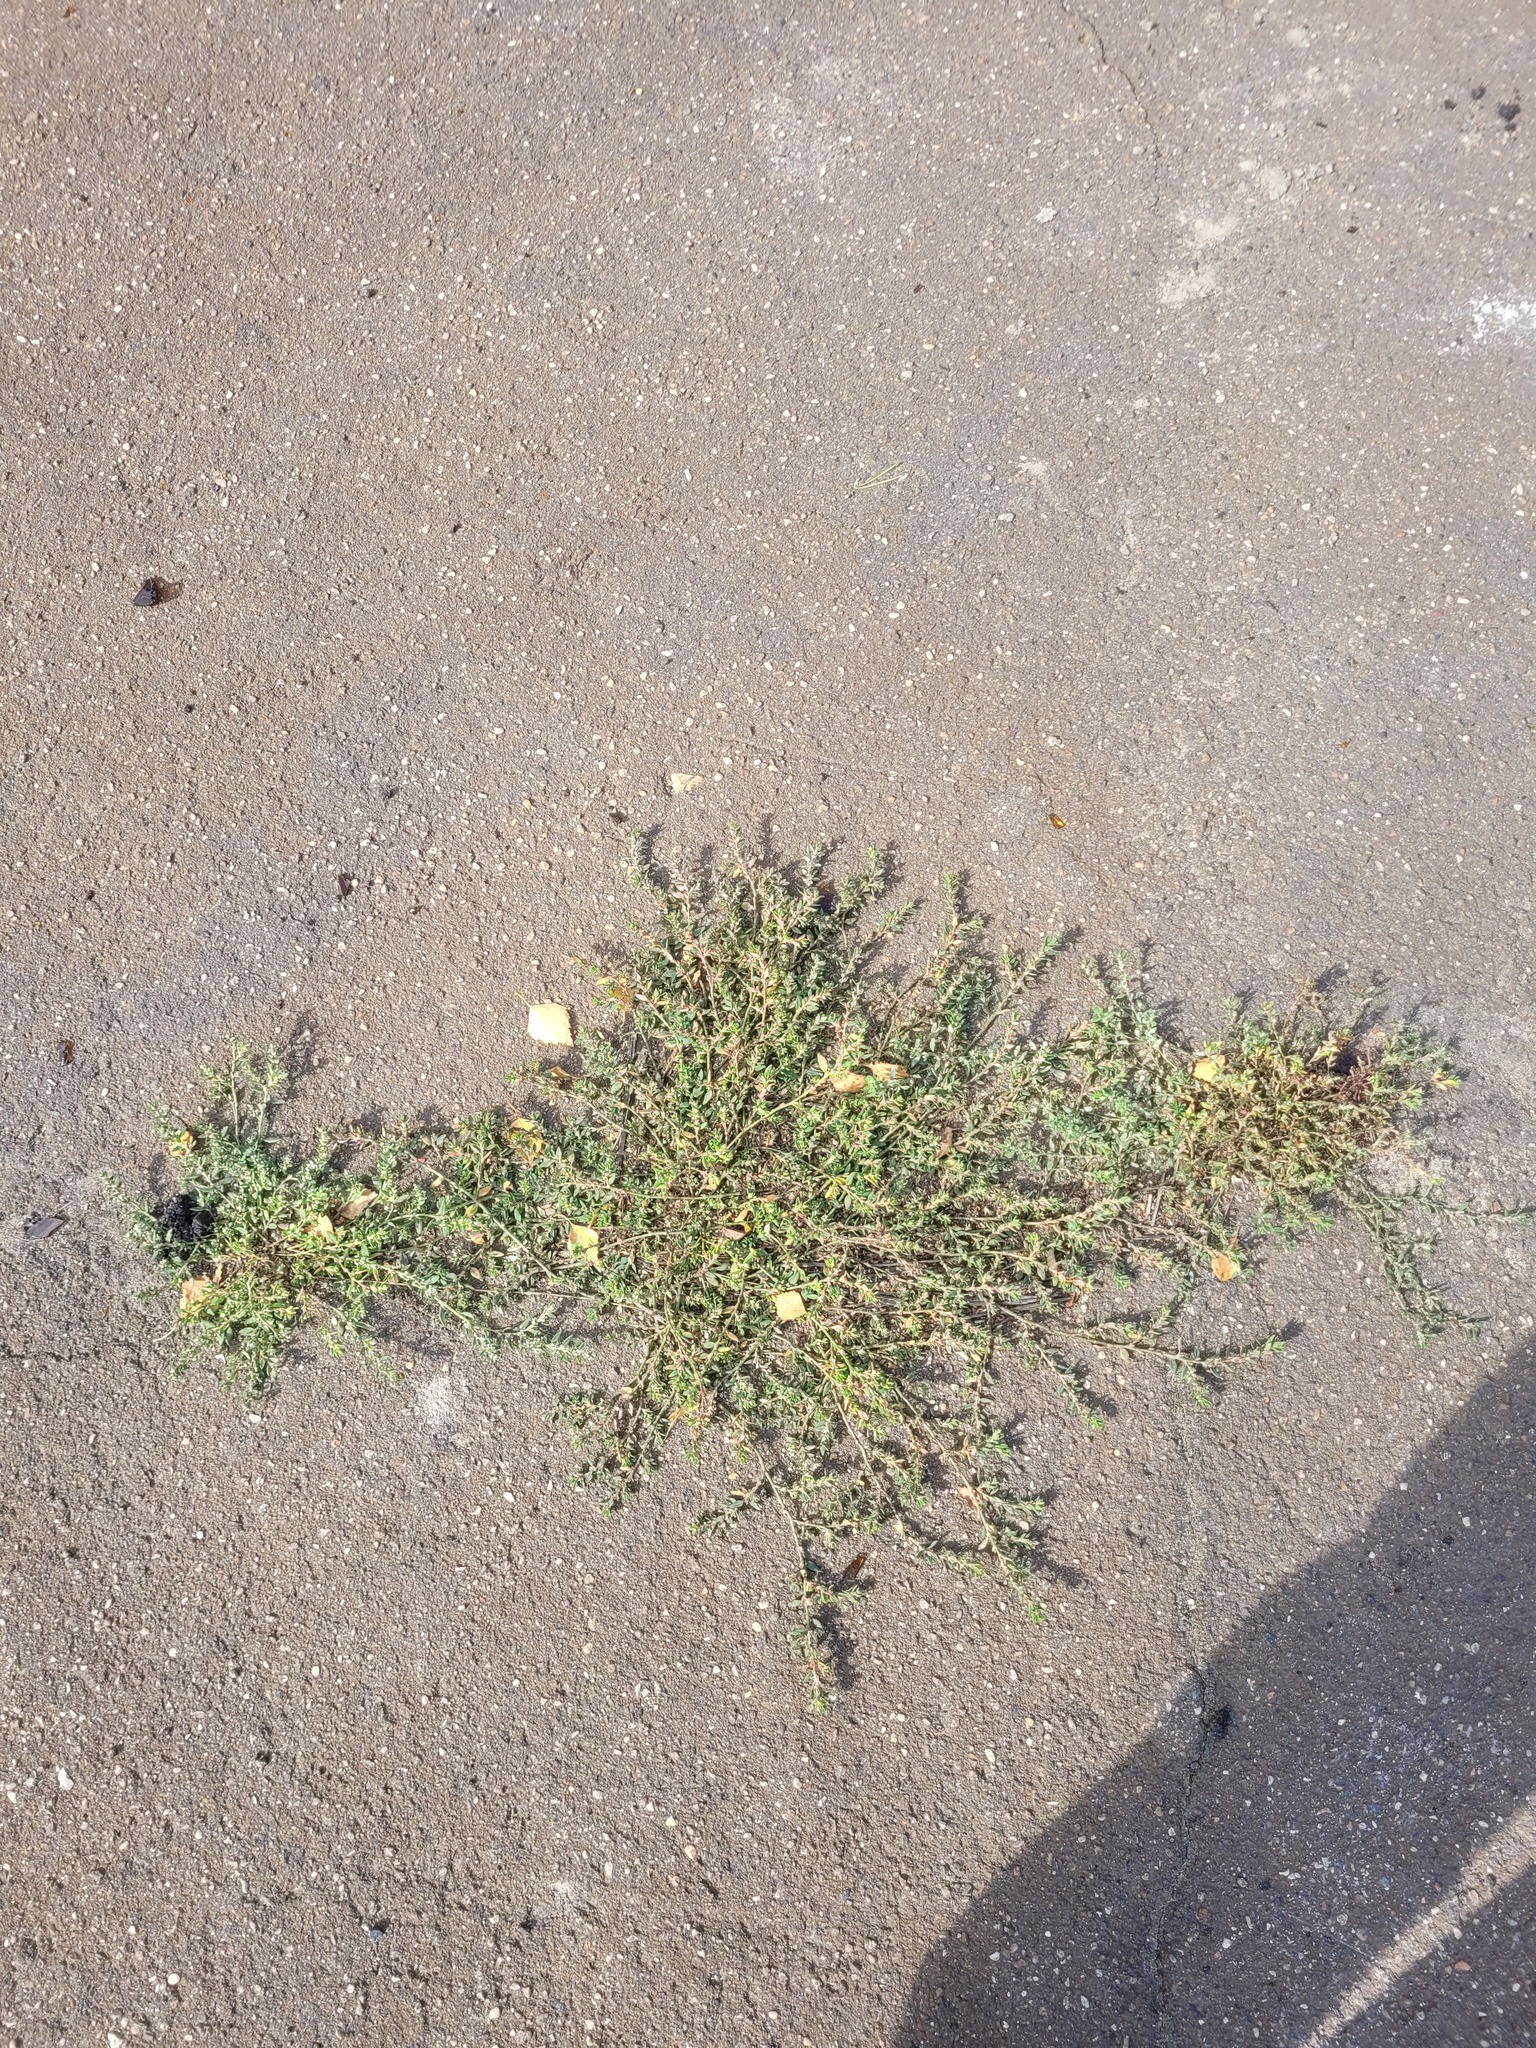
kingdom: Plantae
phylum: Tracheophyta
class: Magnoliopsida
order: Caryophyllales
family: Polygonaceae
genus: Polygonum
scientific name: Polygonum
